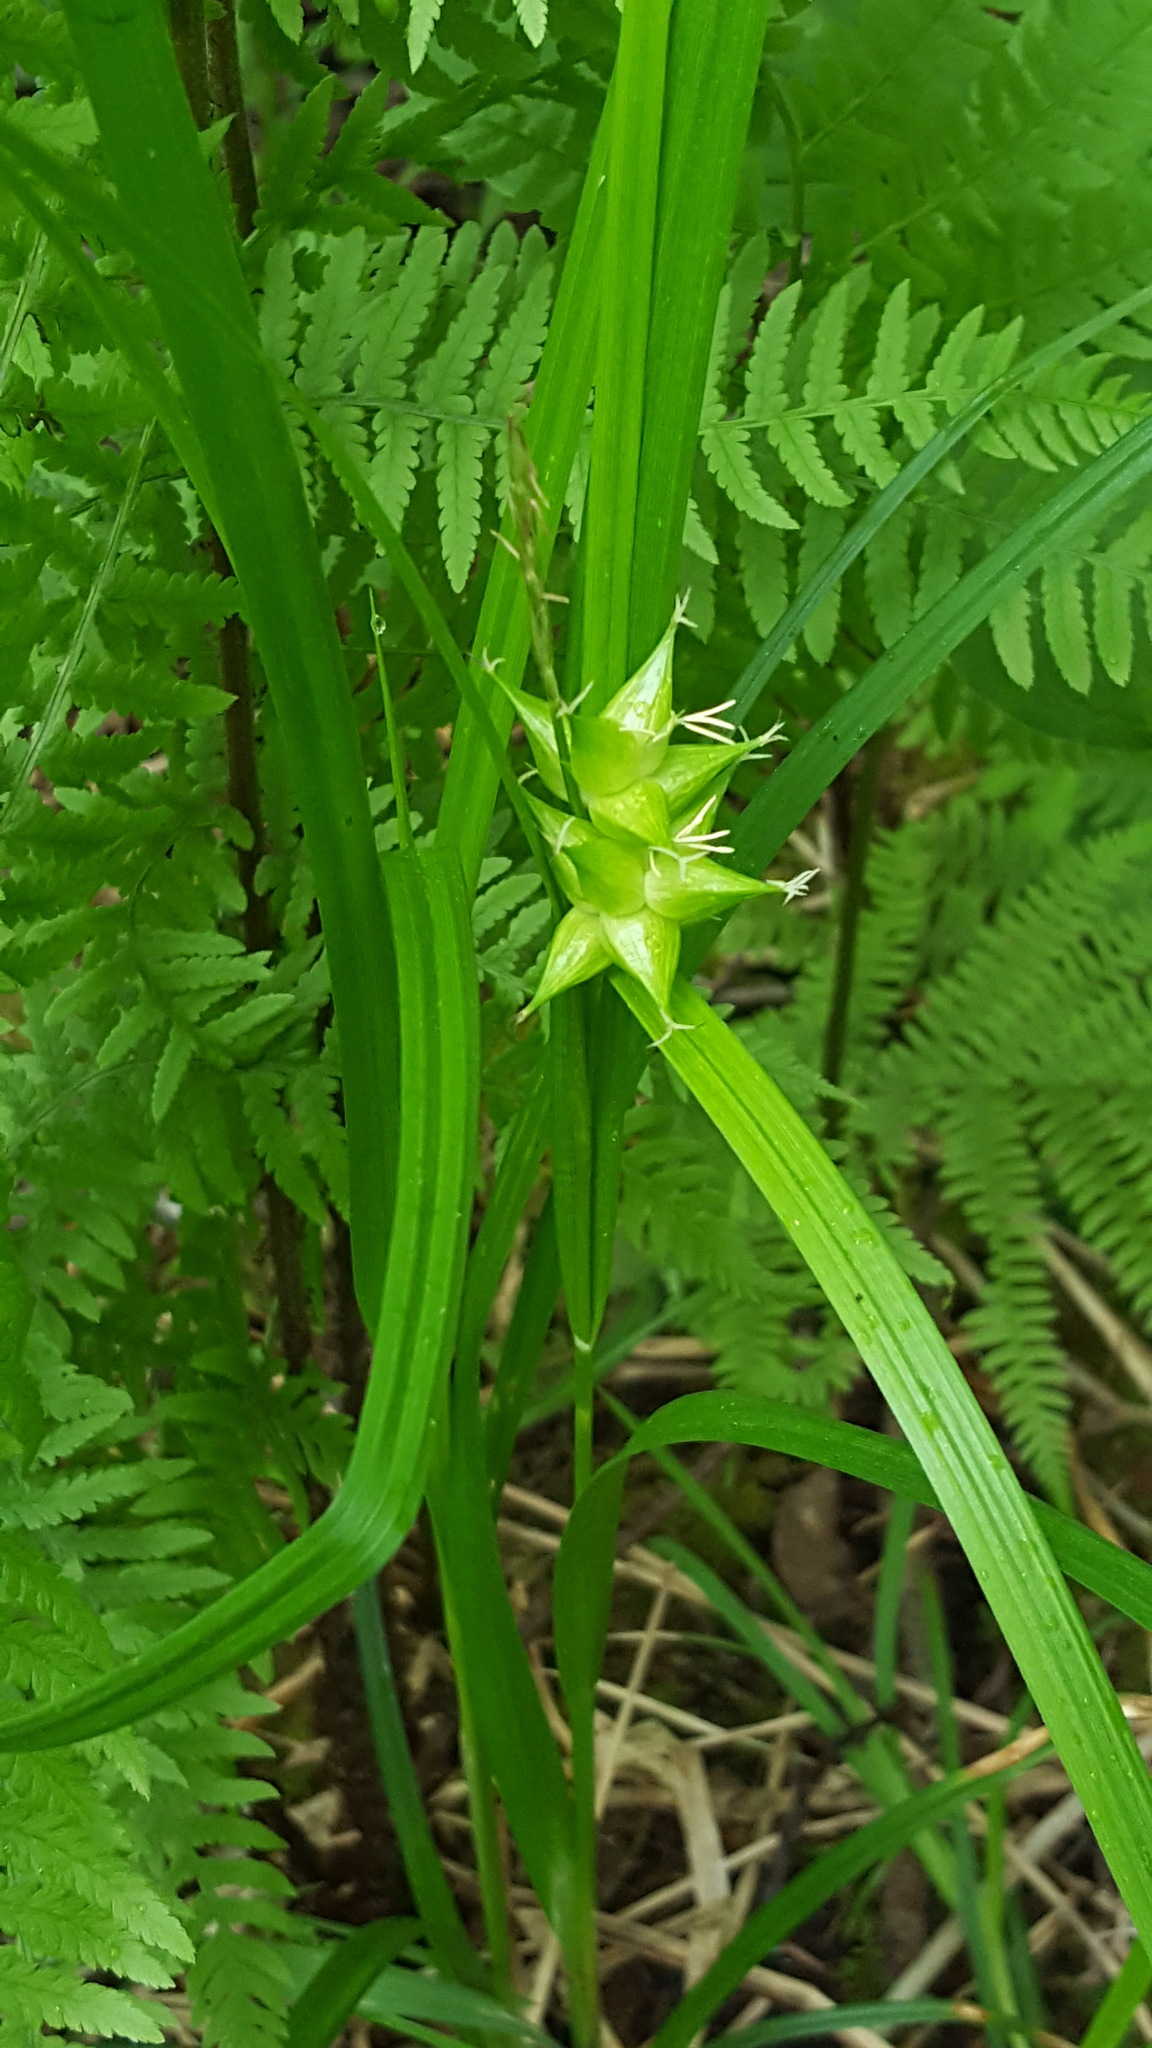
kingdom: Plantae
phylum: Tracheophyta
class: Liliopsida
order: Poales
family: Cyperaceae
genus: Carex
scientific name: Carex intumescens
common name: Greater bladder sedge
